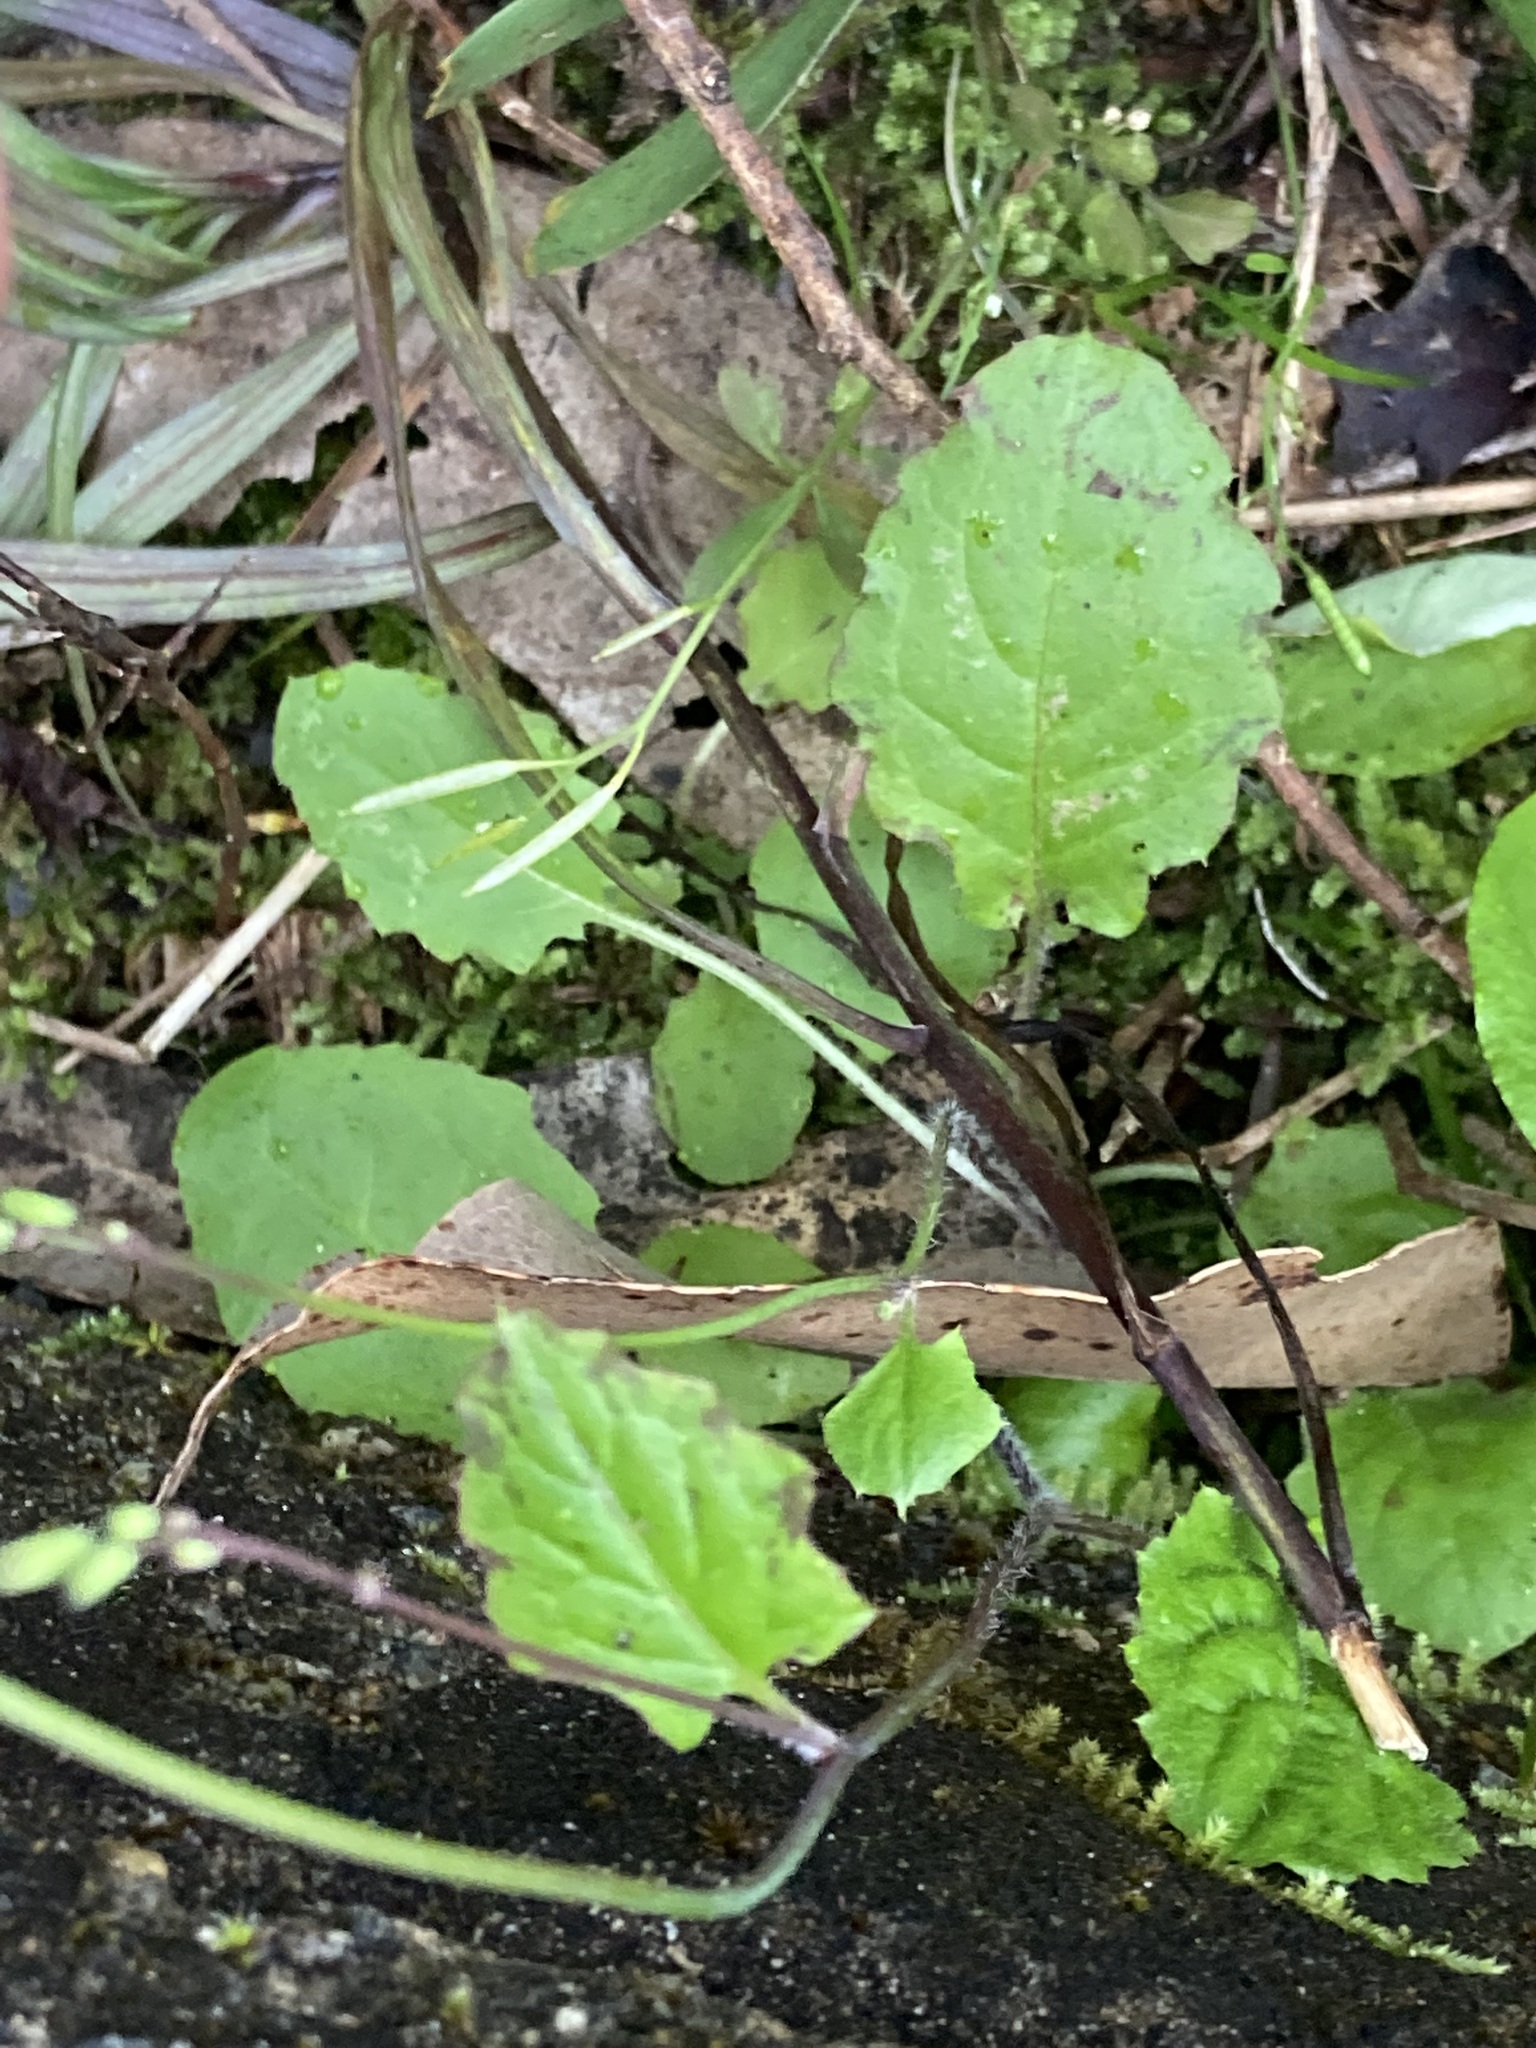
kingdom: Plantae
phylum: Tracheophyta
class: Magnoliopsida
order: Asterales
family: Asteraceae
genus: Youngia
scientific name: Youngia japonica
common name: Oriental false hawksbeard
